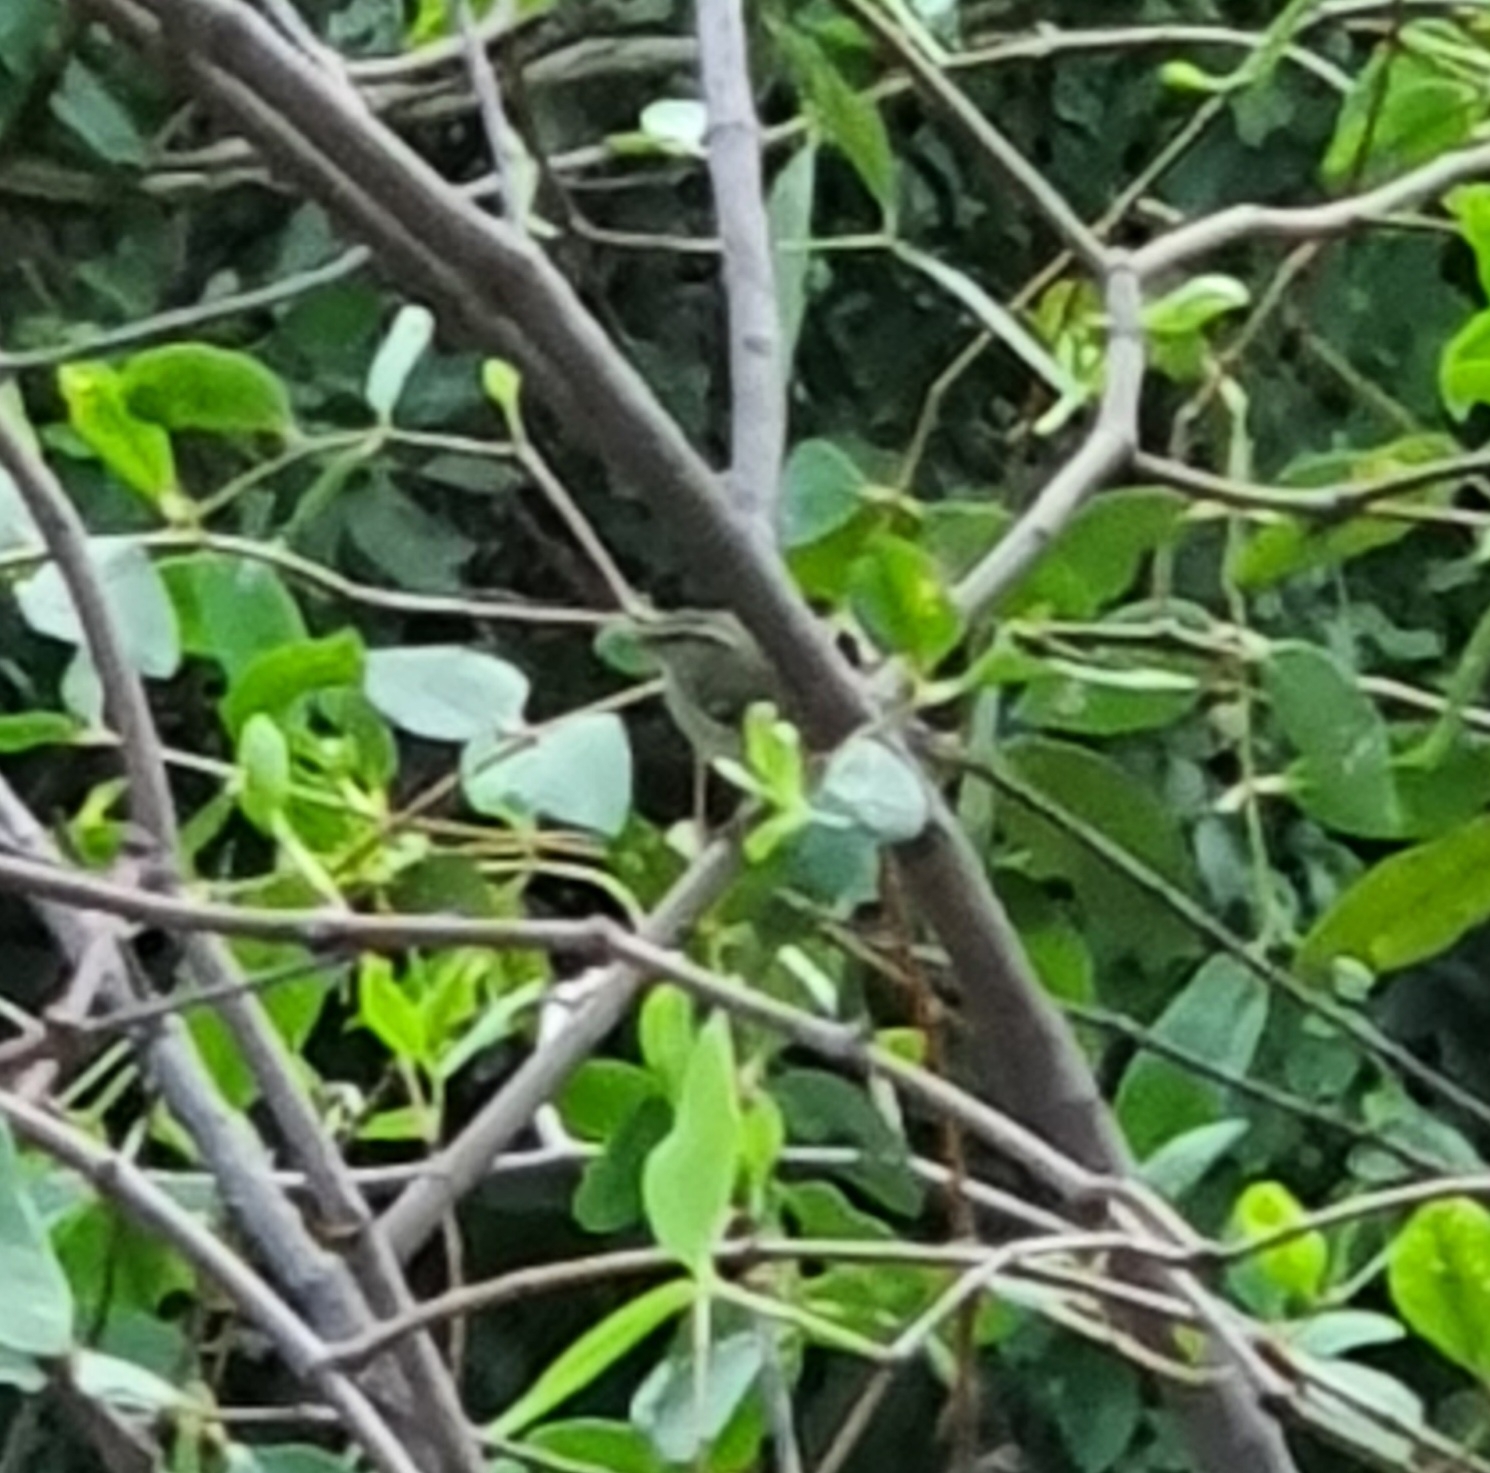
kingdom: Animalia
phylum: Chordata
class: Aves
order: Passeriformes
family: Phylloscopidae
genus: Phylloscopus
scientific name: Phylloscopus inornatus
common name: Yellow-browed warbler
